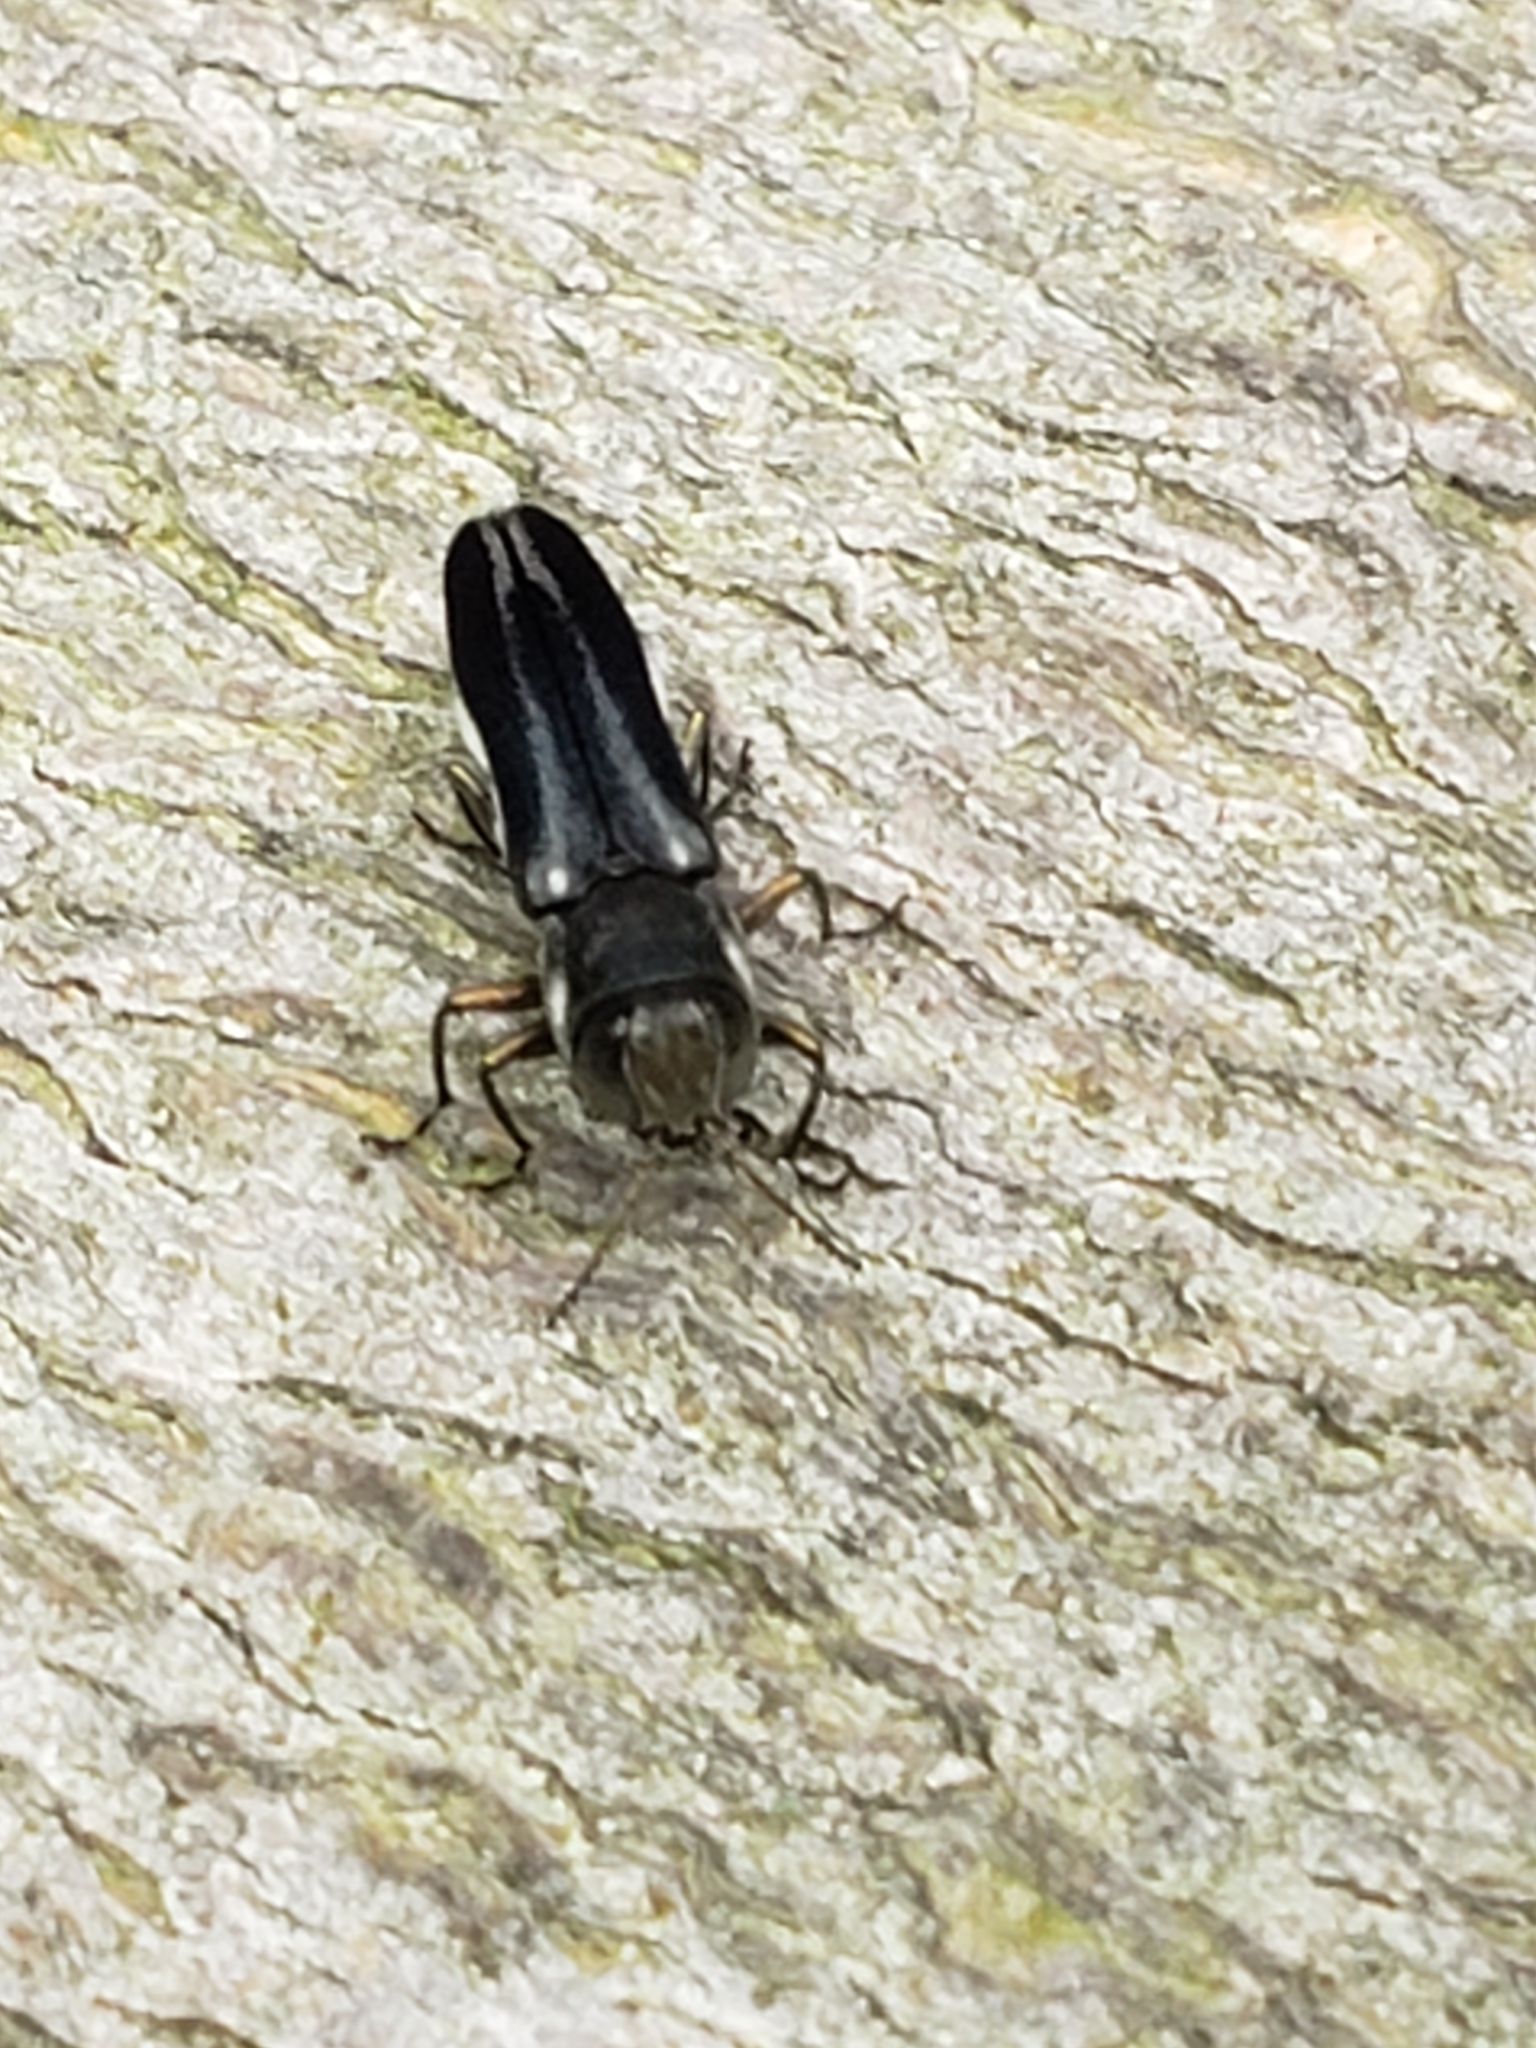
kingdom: Animalia
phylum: Arthropoda
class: Insecta
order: Coleoptera
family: Buprestidae
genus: Agrilus
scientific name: Agrilus bilineatus
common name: Two-lined chestnut borer
